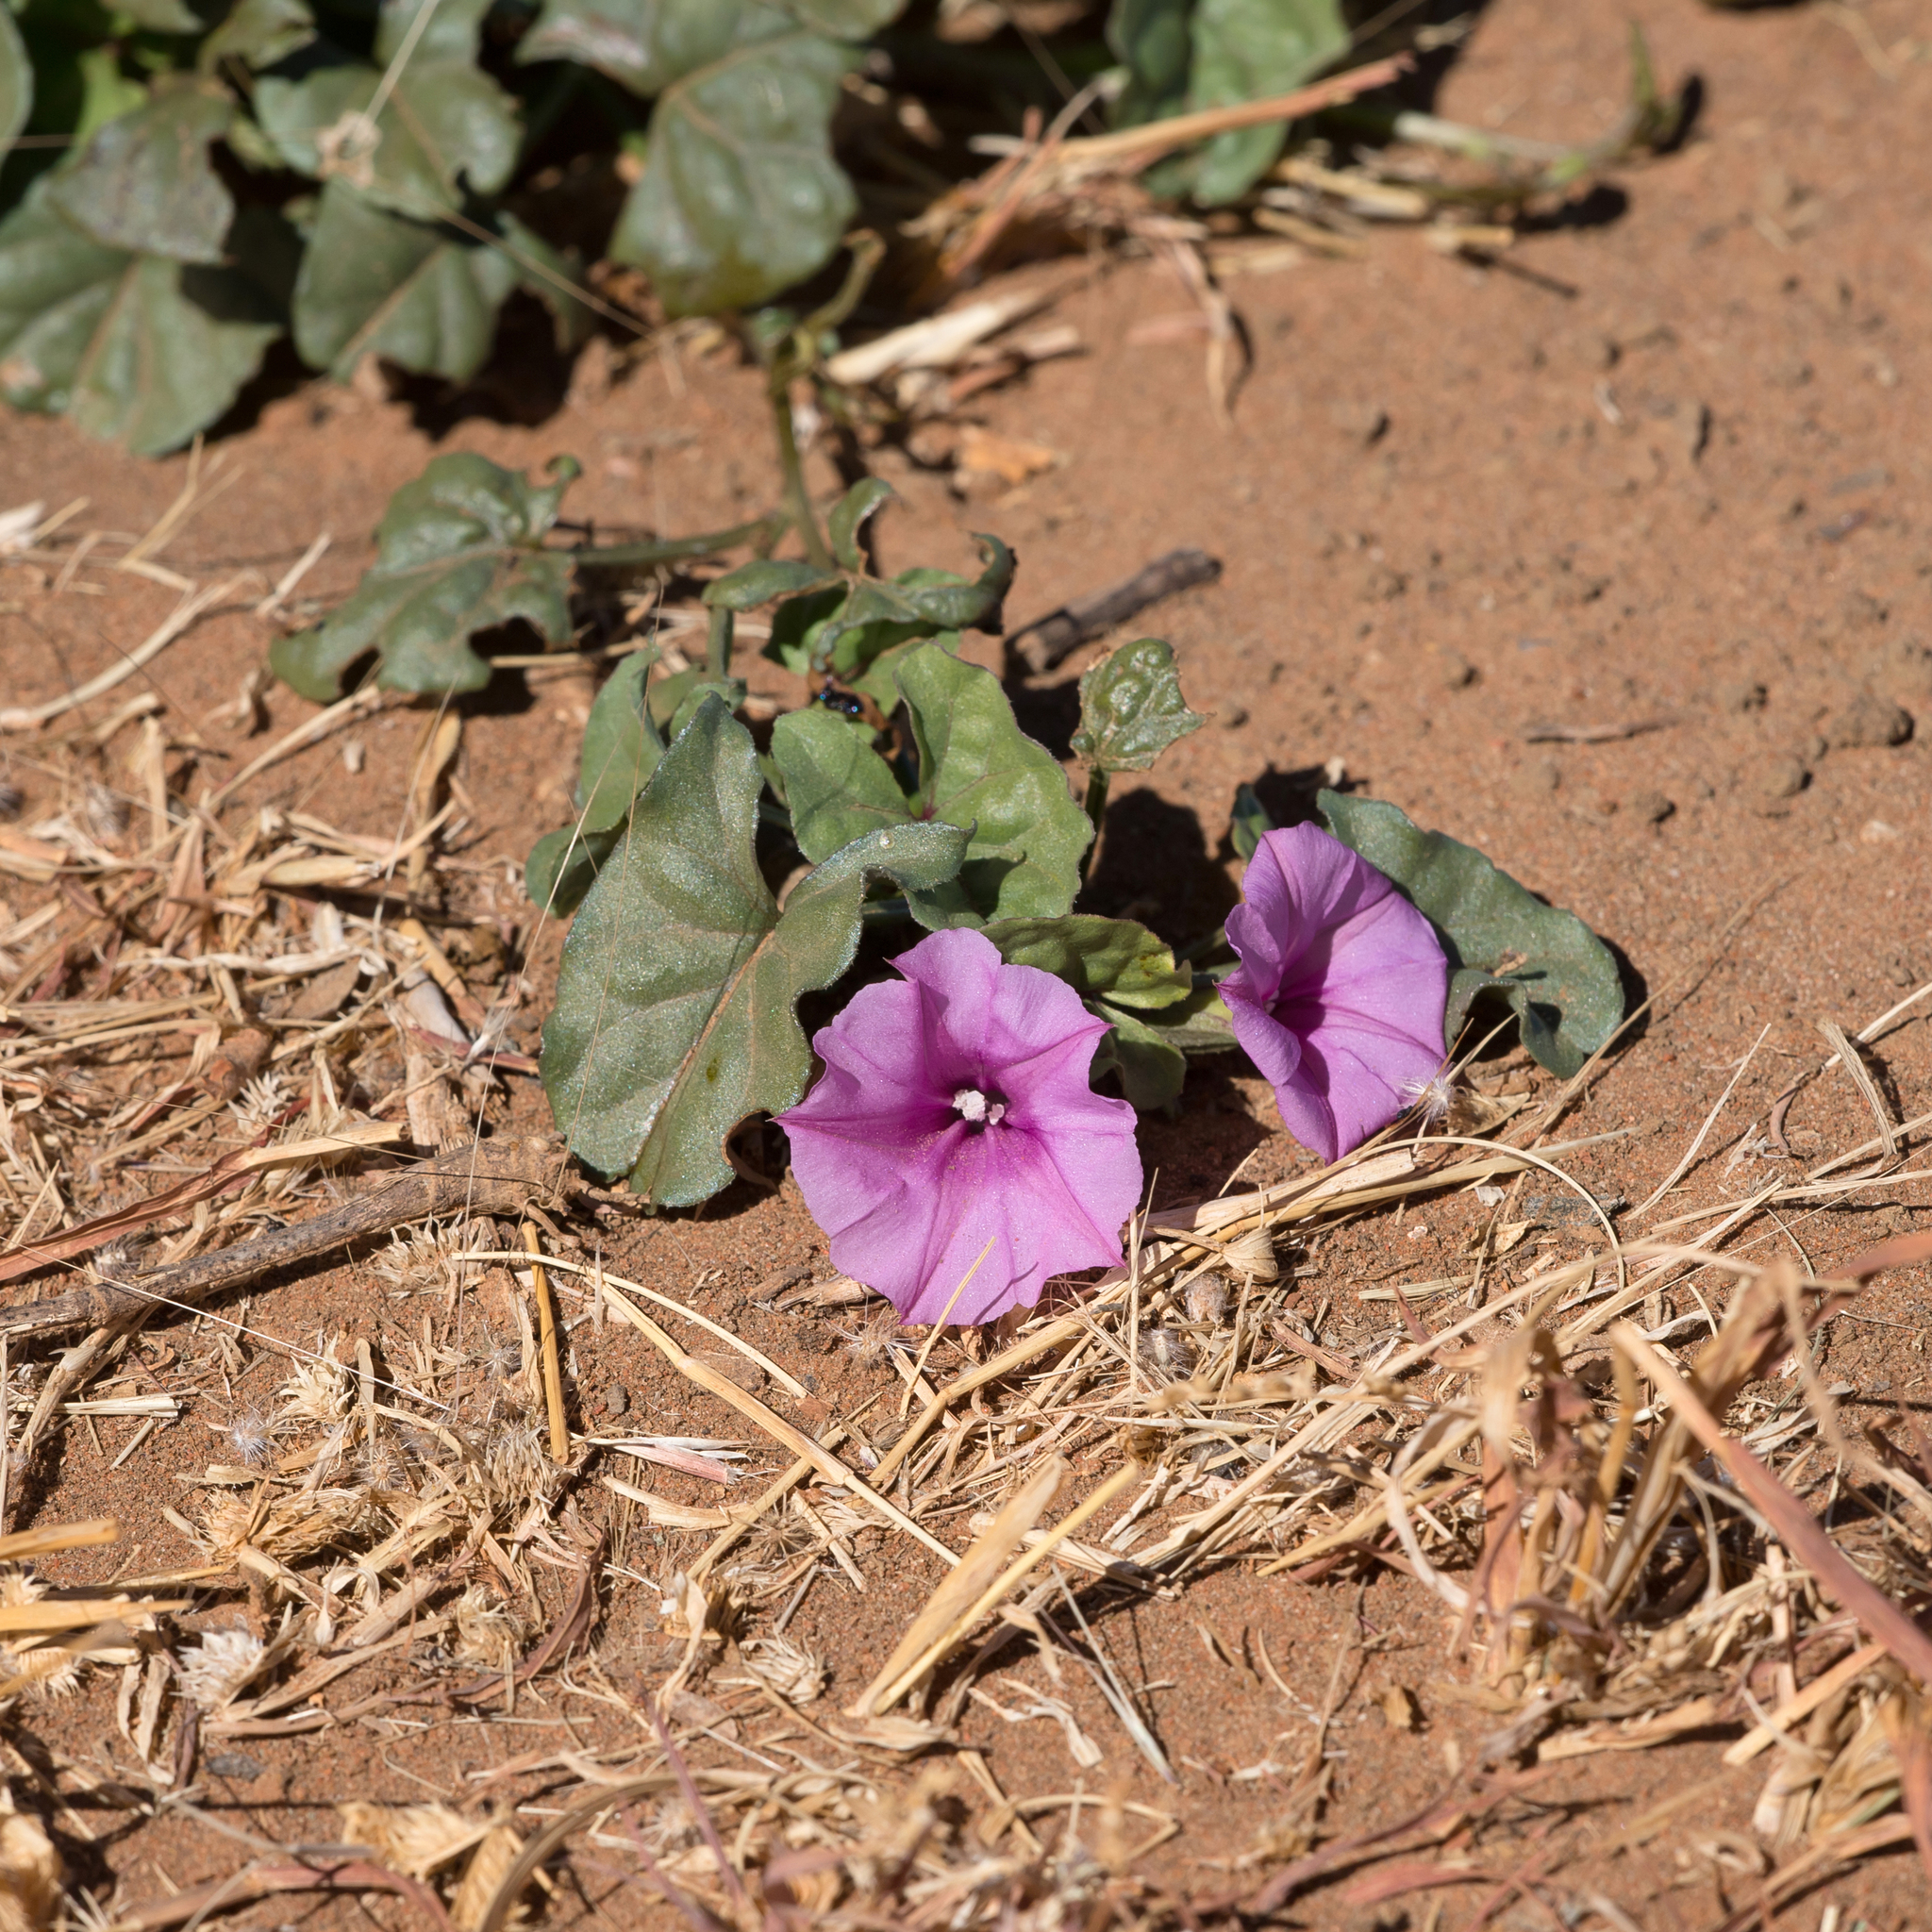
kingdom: Plantae
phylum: Tracheophyta
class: Magnoliopsida
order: Solanales
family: Convolvulaceae
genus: Ipomoea
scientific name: Ipomoea muelleri
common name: Poison morning-glory
